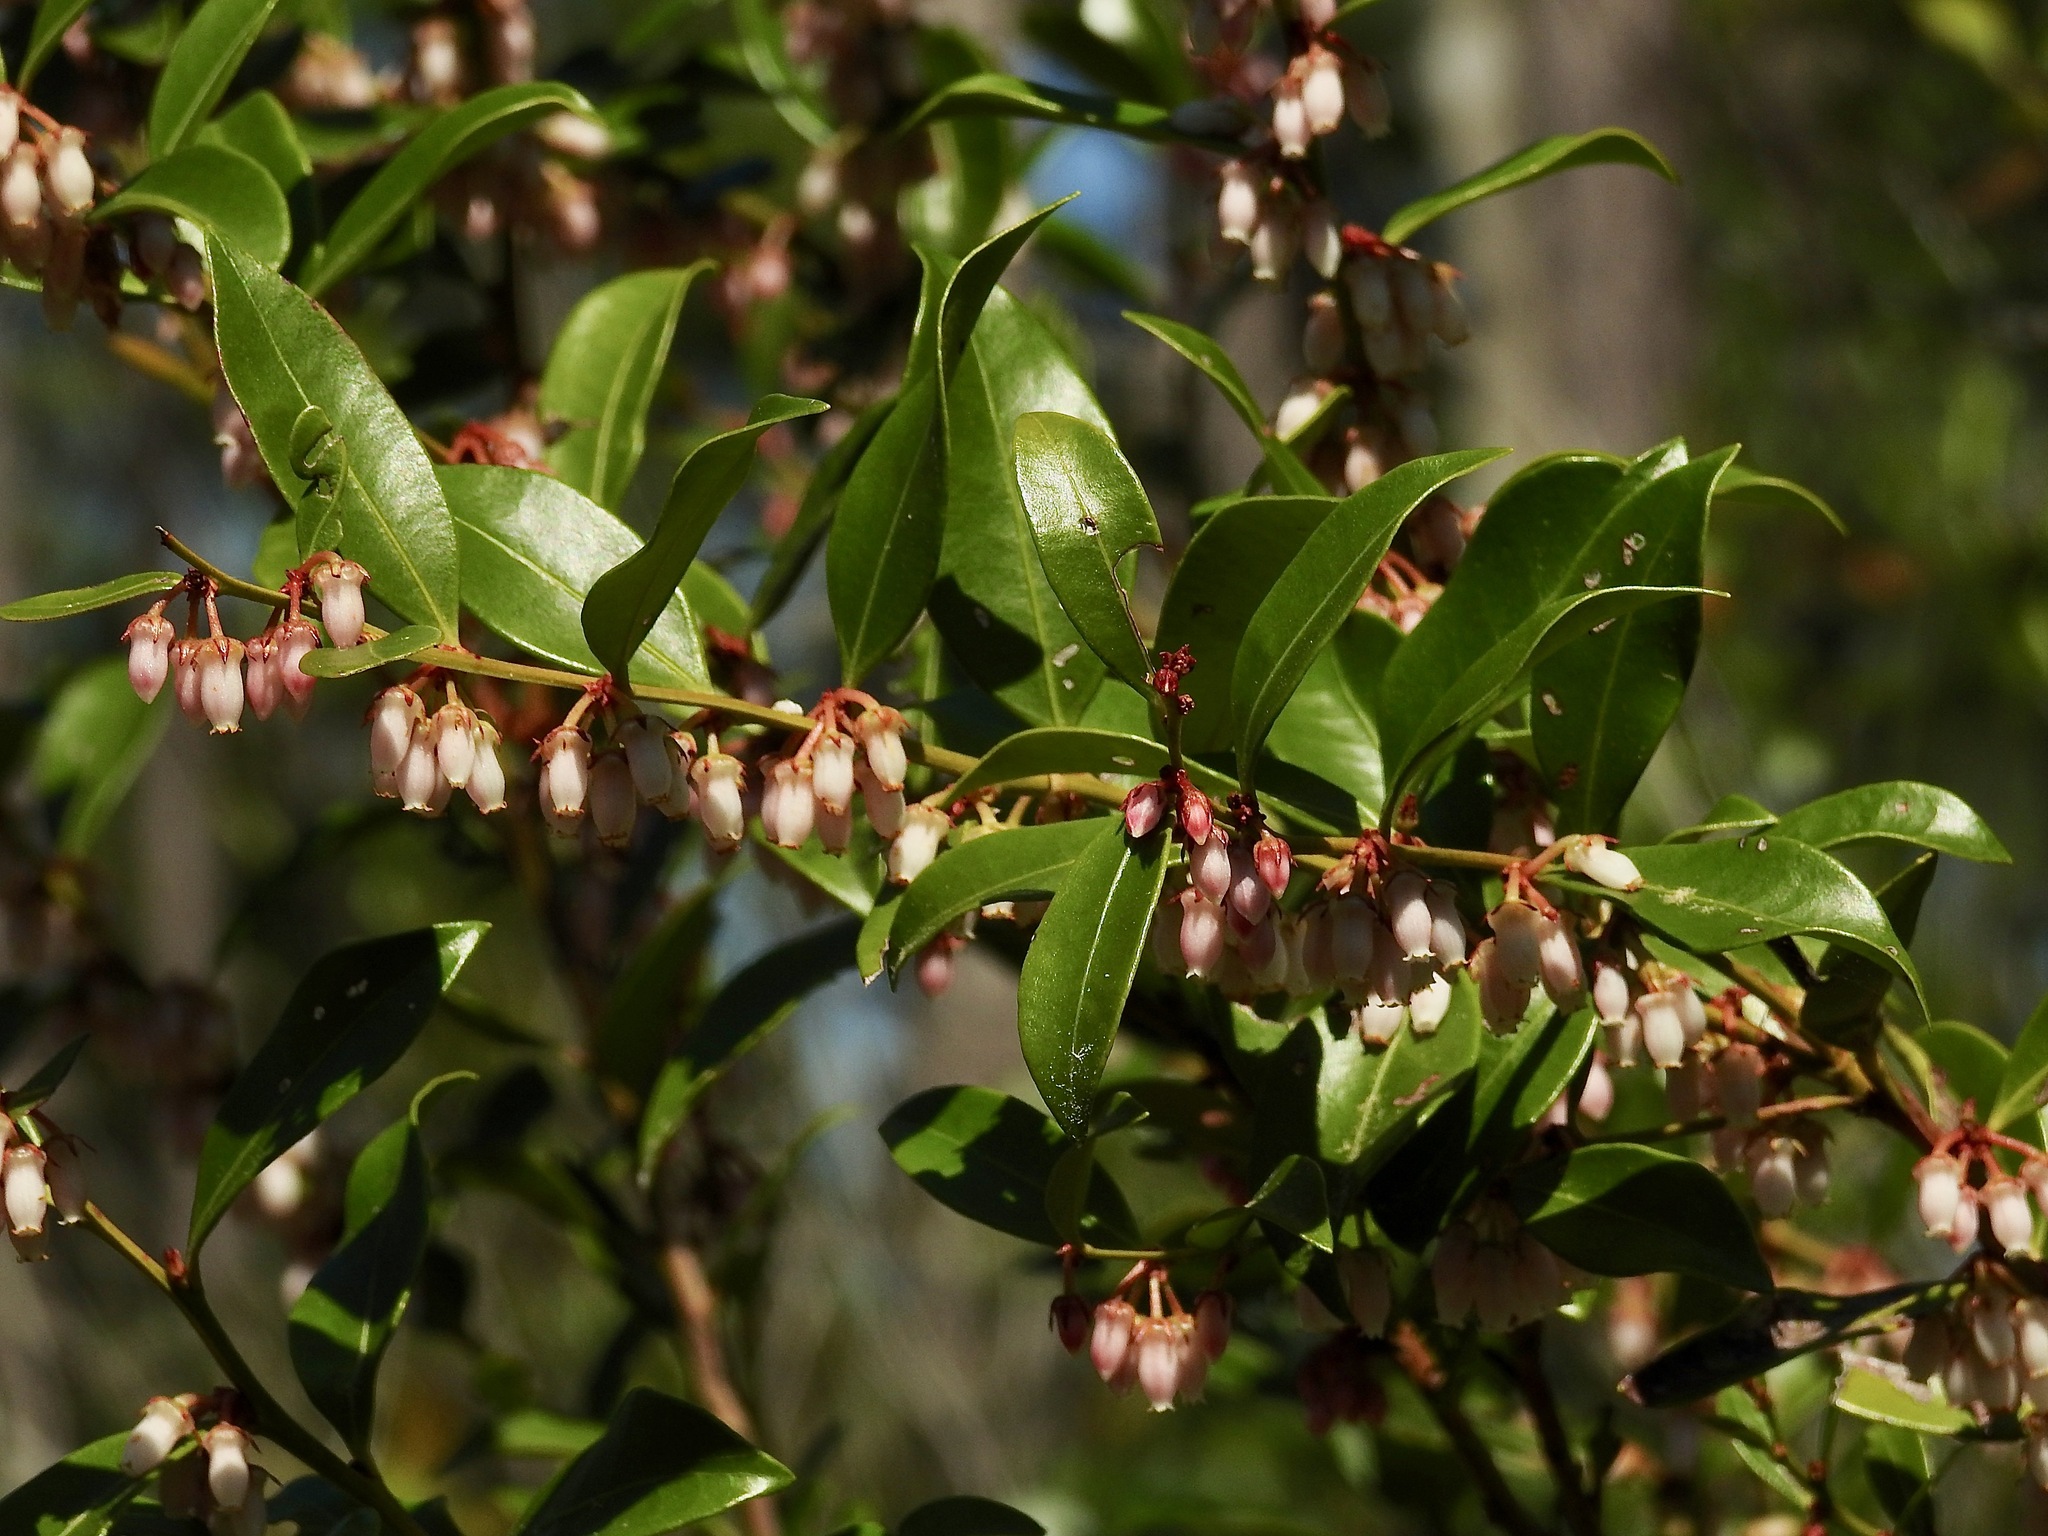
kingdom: Plantae
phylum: Tracheophyta
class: Magnoliopsida
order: Ericales
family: Ericaceae
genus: Lyonia
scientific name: Lyonia lucida
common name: Fetterbush
